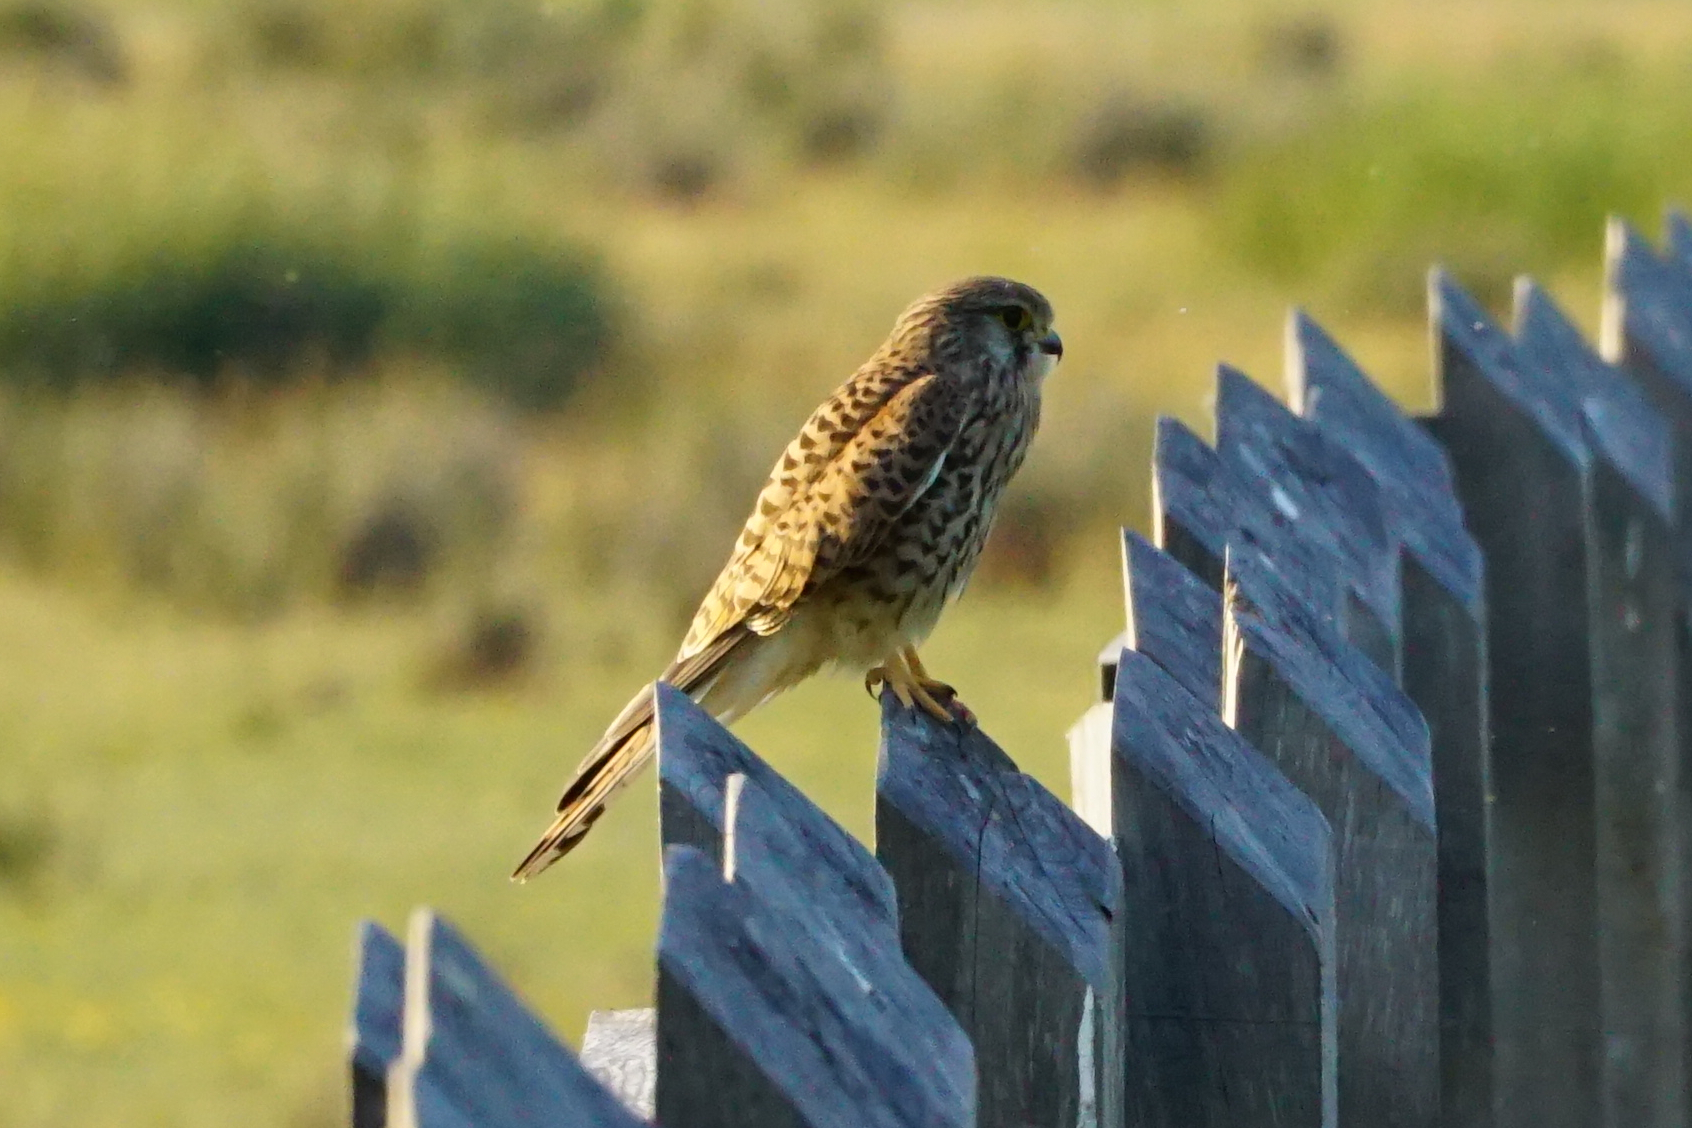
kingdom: Animalia
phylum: Chordata
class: Aves
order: Falconiformes
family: Falconidae
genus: Falco
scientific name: Falco tinnunculus
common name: Common kestrel
